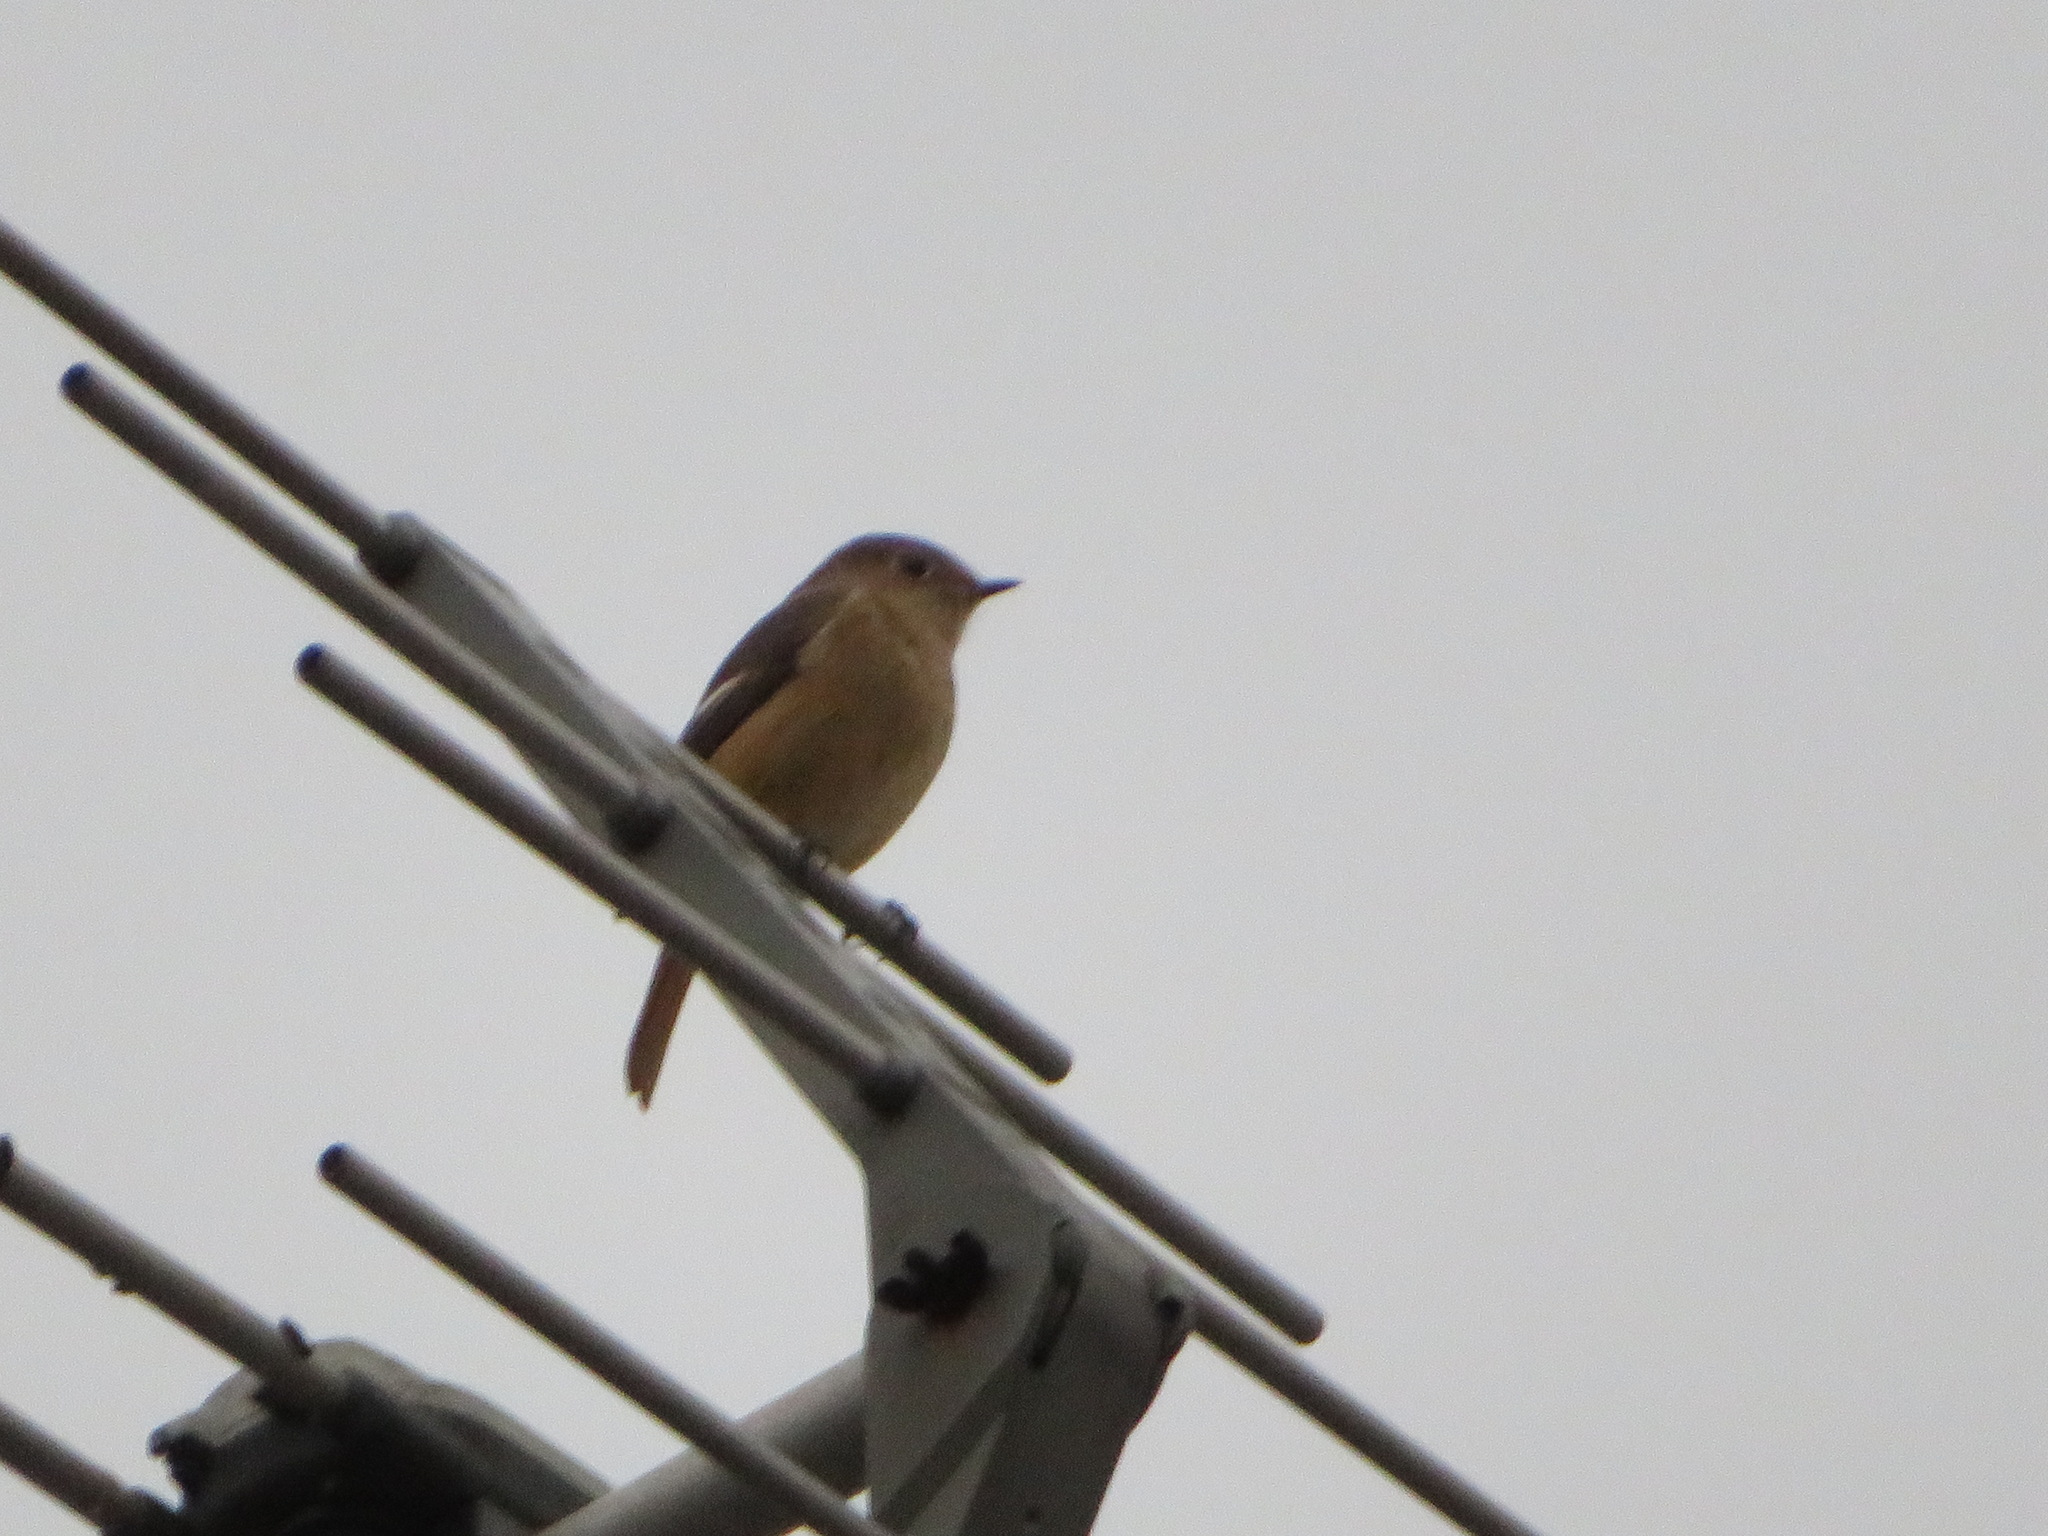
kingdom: Animalia
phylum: Chordata
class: Aves
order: Passeriformes
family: Muscicapidae
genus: Phoenicurus
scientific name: Phoenicurus auroreus
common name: Daurian redstart
